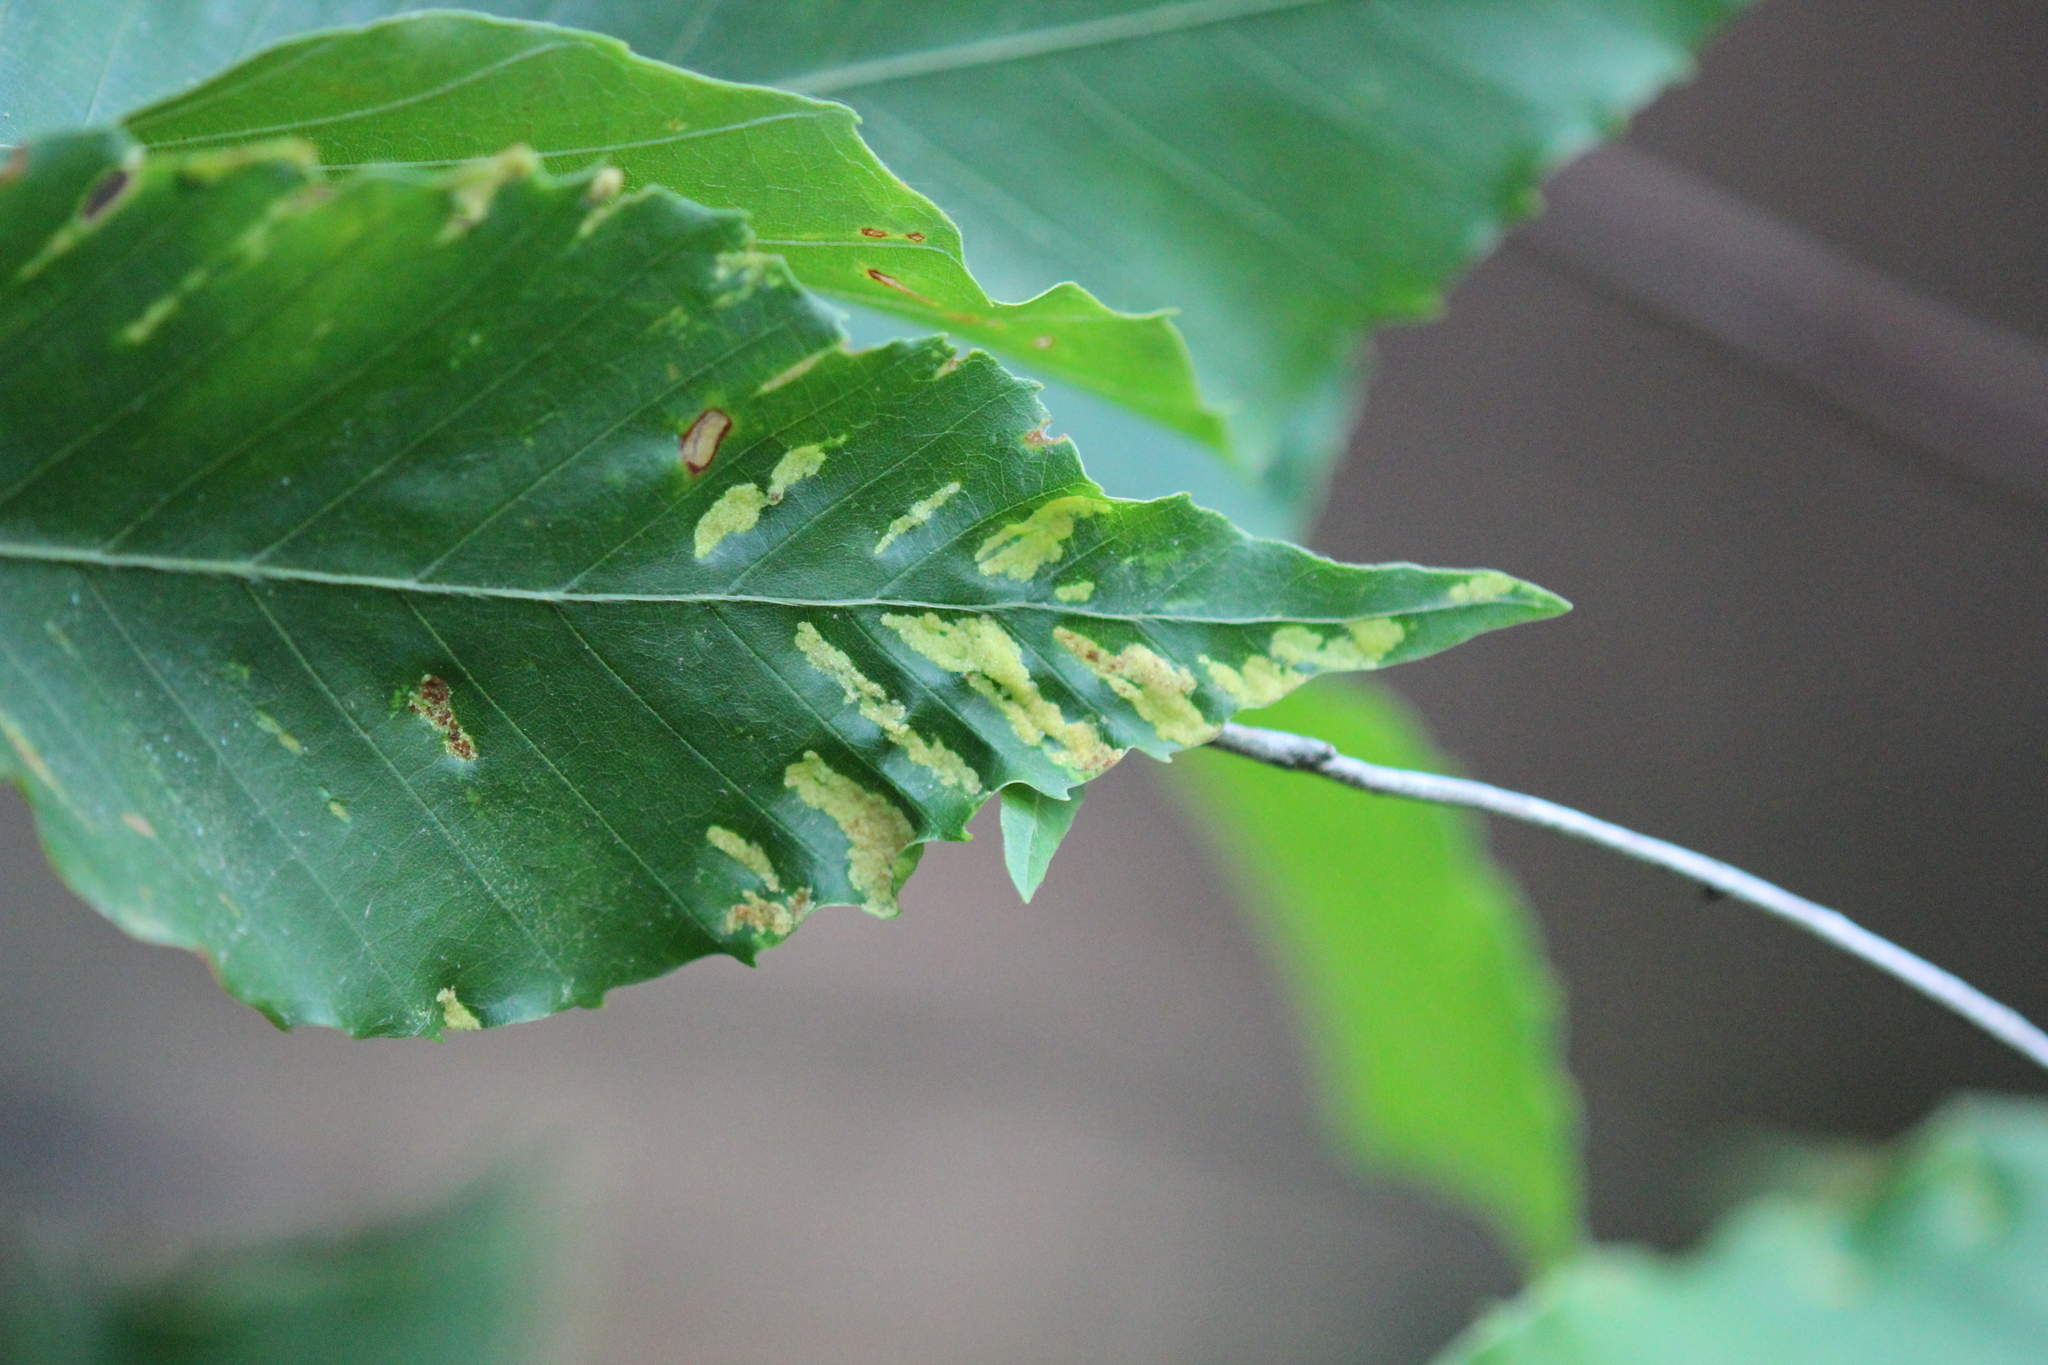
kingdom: Plantae
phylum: Tracheophyta
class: Magnoliopsida
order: Fagales
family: Fagaceae
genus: Fagus
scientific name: Fagus grandifolia
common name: American beech
